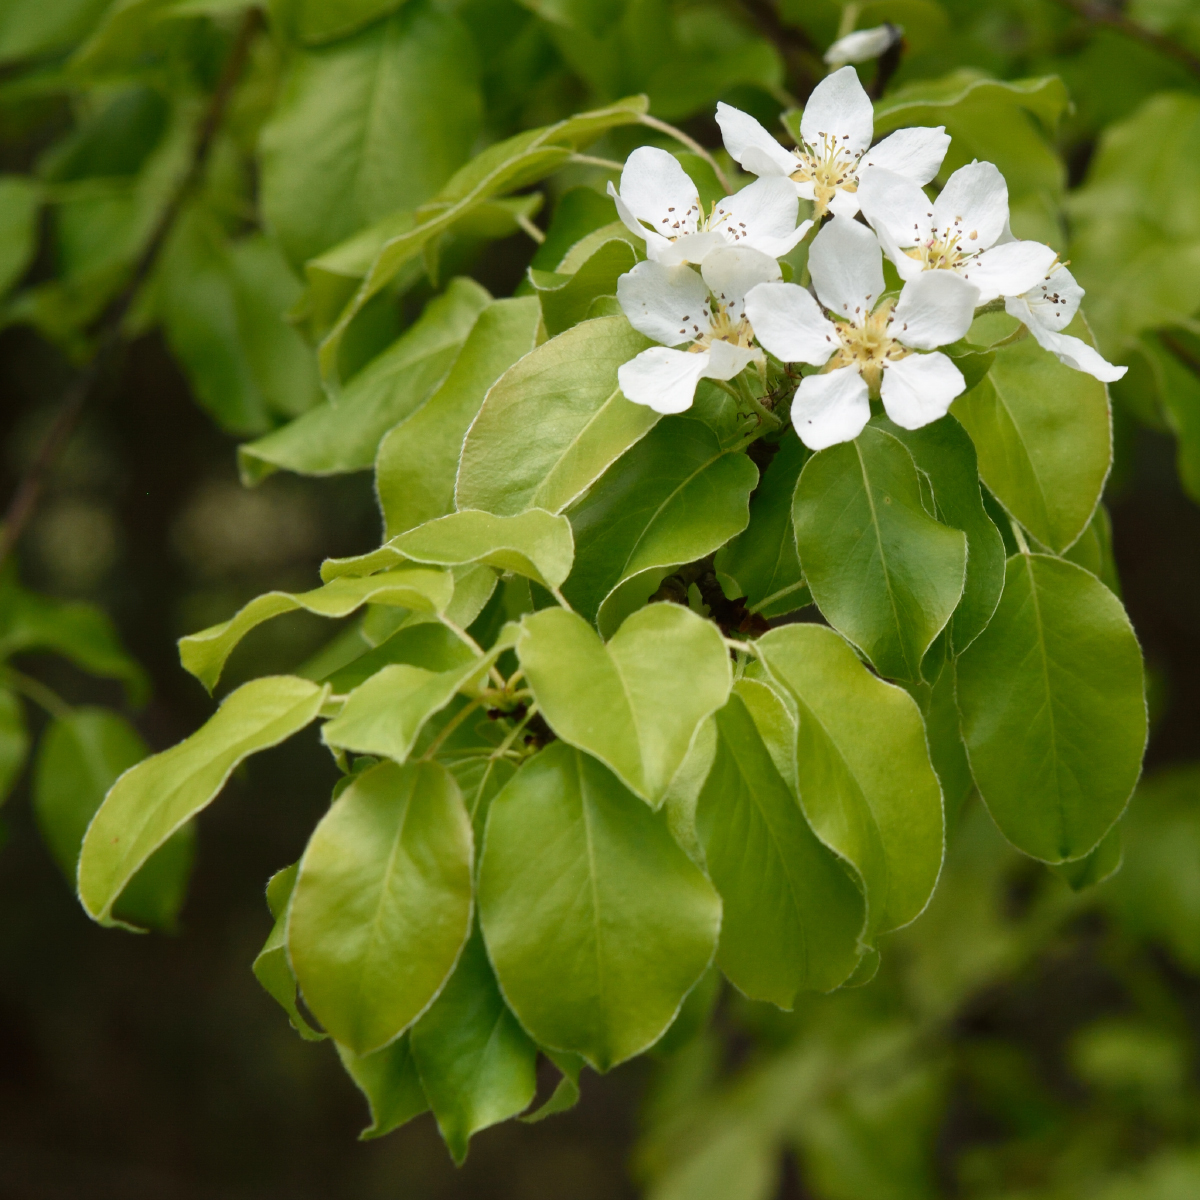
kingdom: Plantae
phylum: Tracheophyta
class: Magnoliopsida
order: Rosales
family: Rosaceae
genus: Pyrus
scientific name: Pyrus communis
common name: Pear
